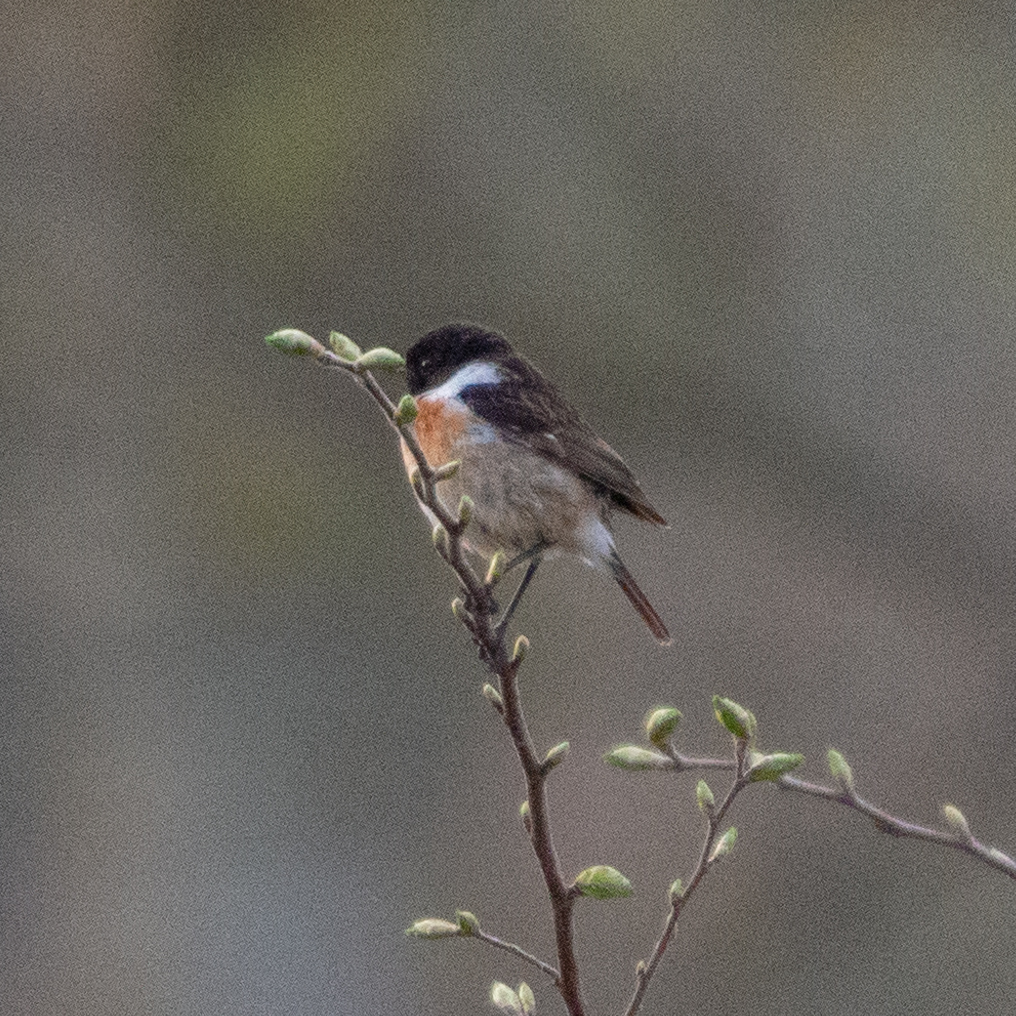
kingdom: Animalia
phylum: Chordata
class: Aves
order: Passeriformes
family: Muscicapidae
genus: Saxicola
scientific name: Saxicola rubicola
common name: European stonechat
